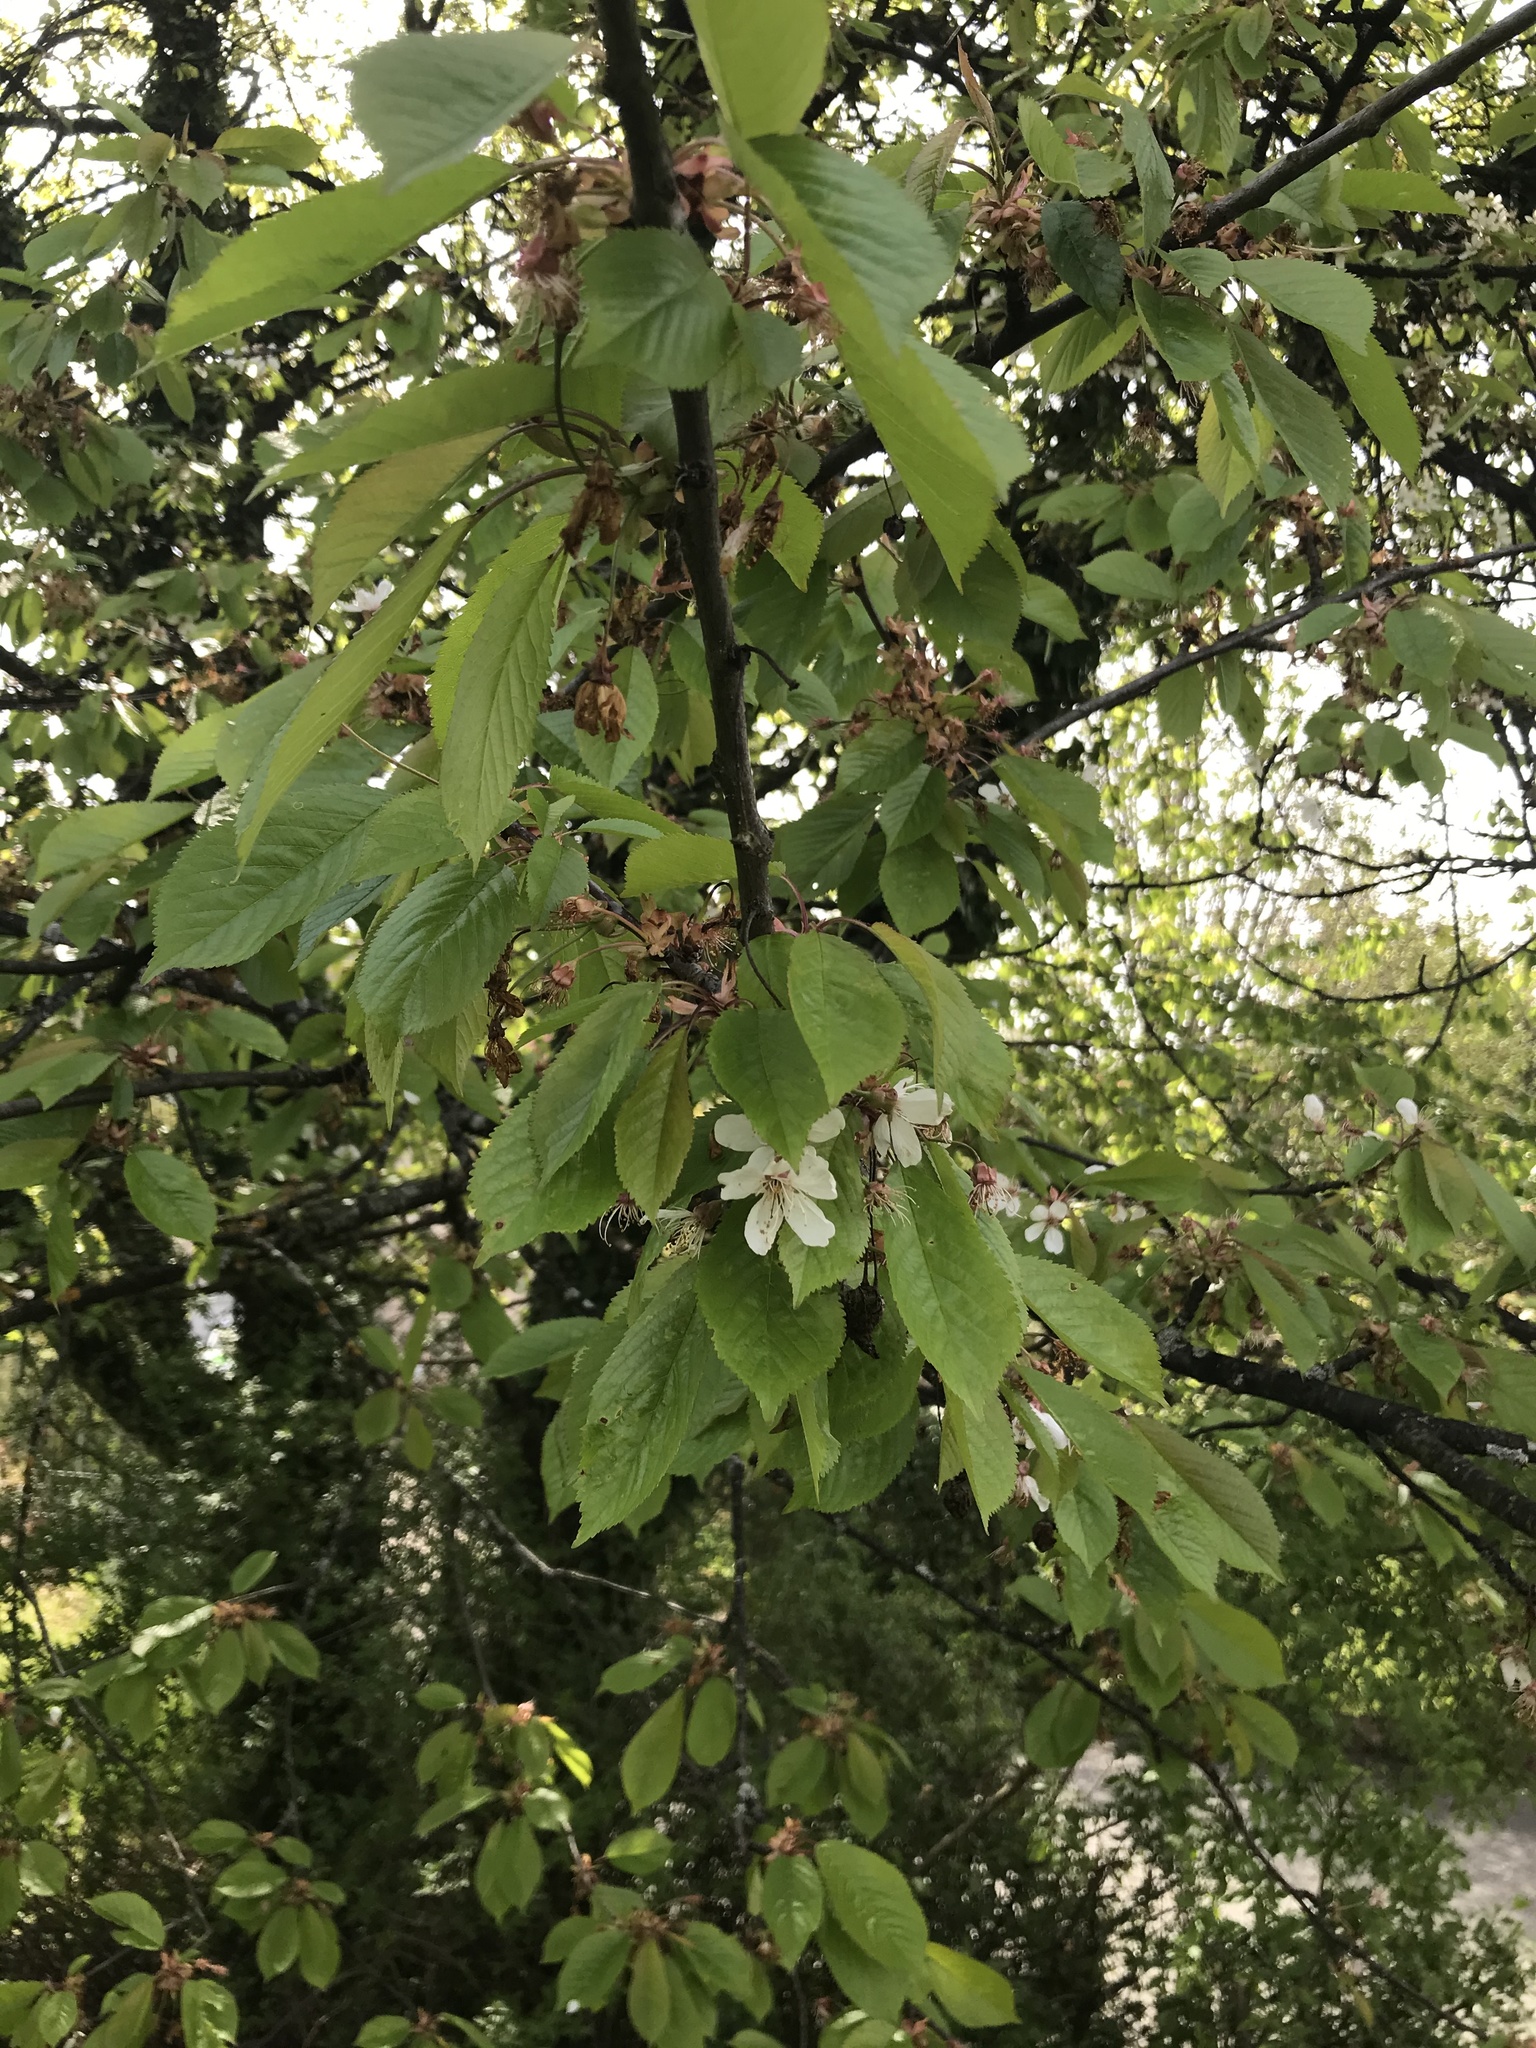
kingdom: Plantae
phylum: Tracheophyta
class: Magnoliopsida
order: Rosales
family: Rosaceae
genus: Prunus
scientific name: Prunus avium
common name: Sweet cherry
